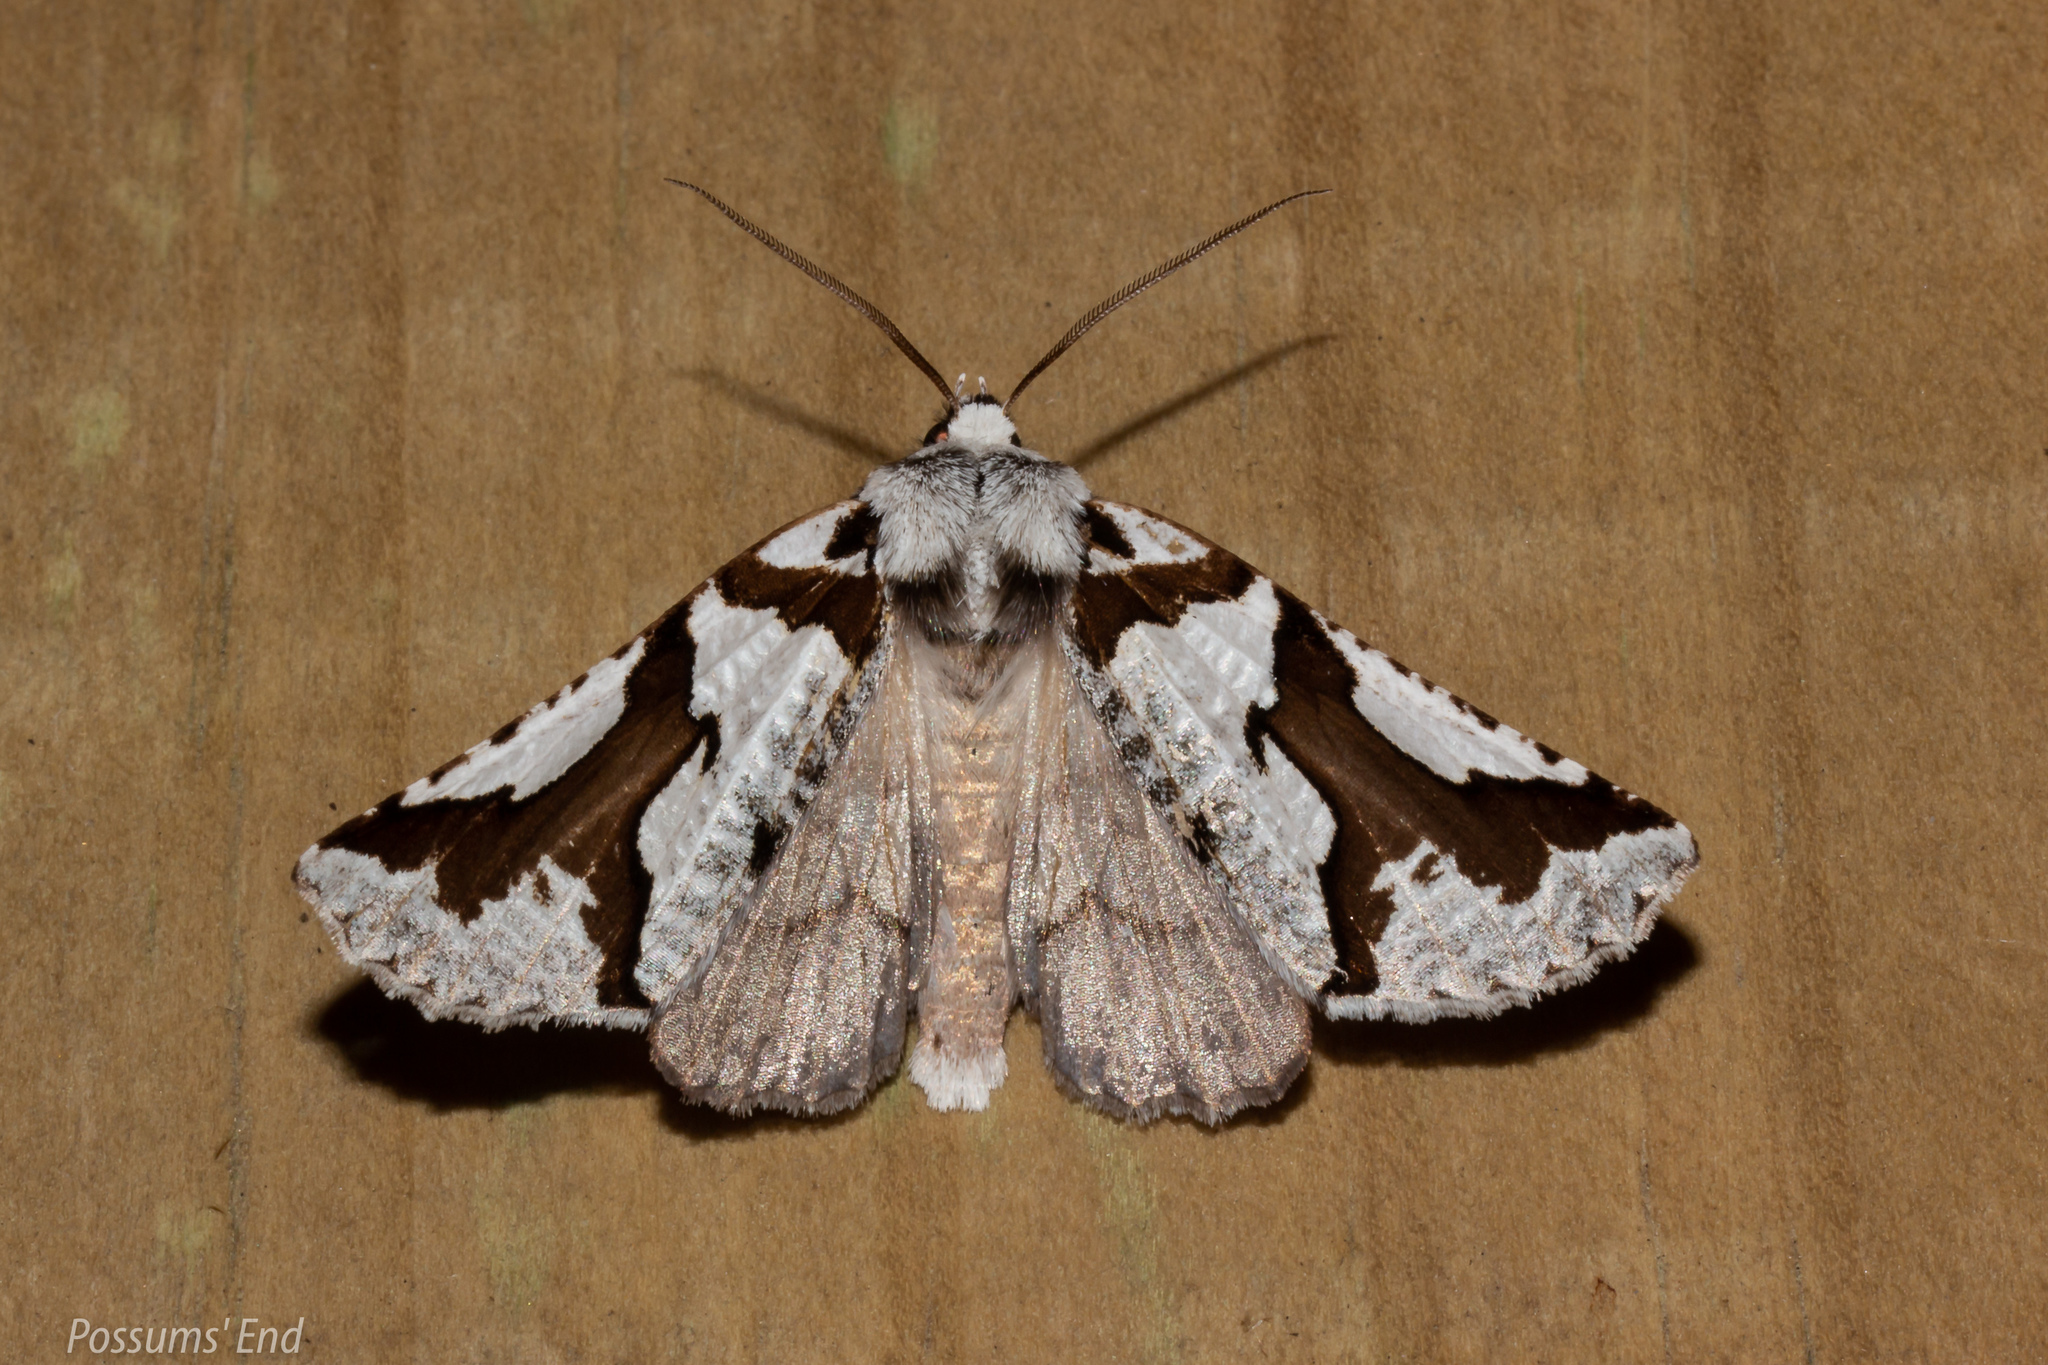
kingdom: Animalia
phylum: Arthropoda
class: Insecta
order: Lepidoptera
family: Geometridae
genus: Declana
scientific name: Declana
